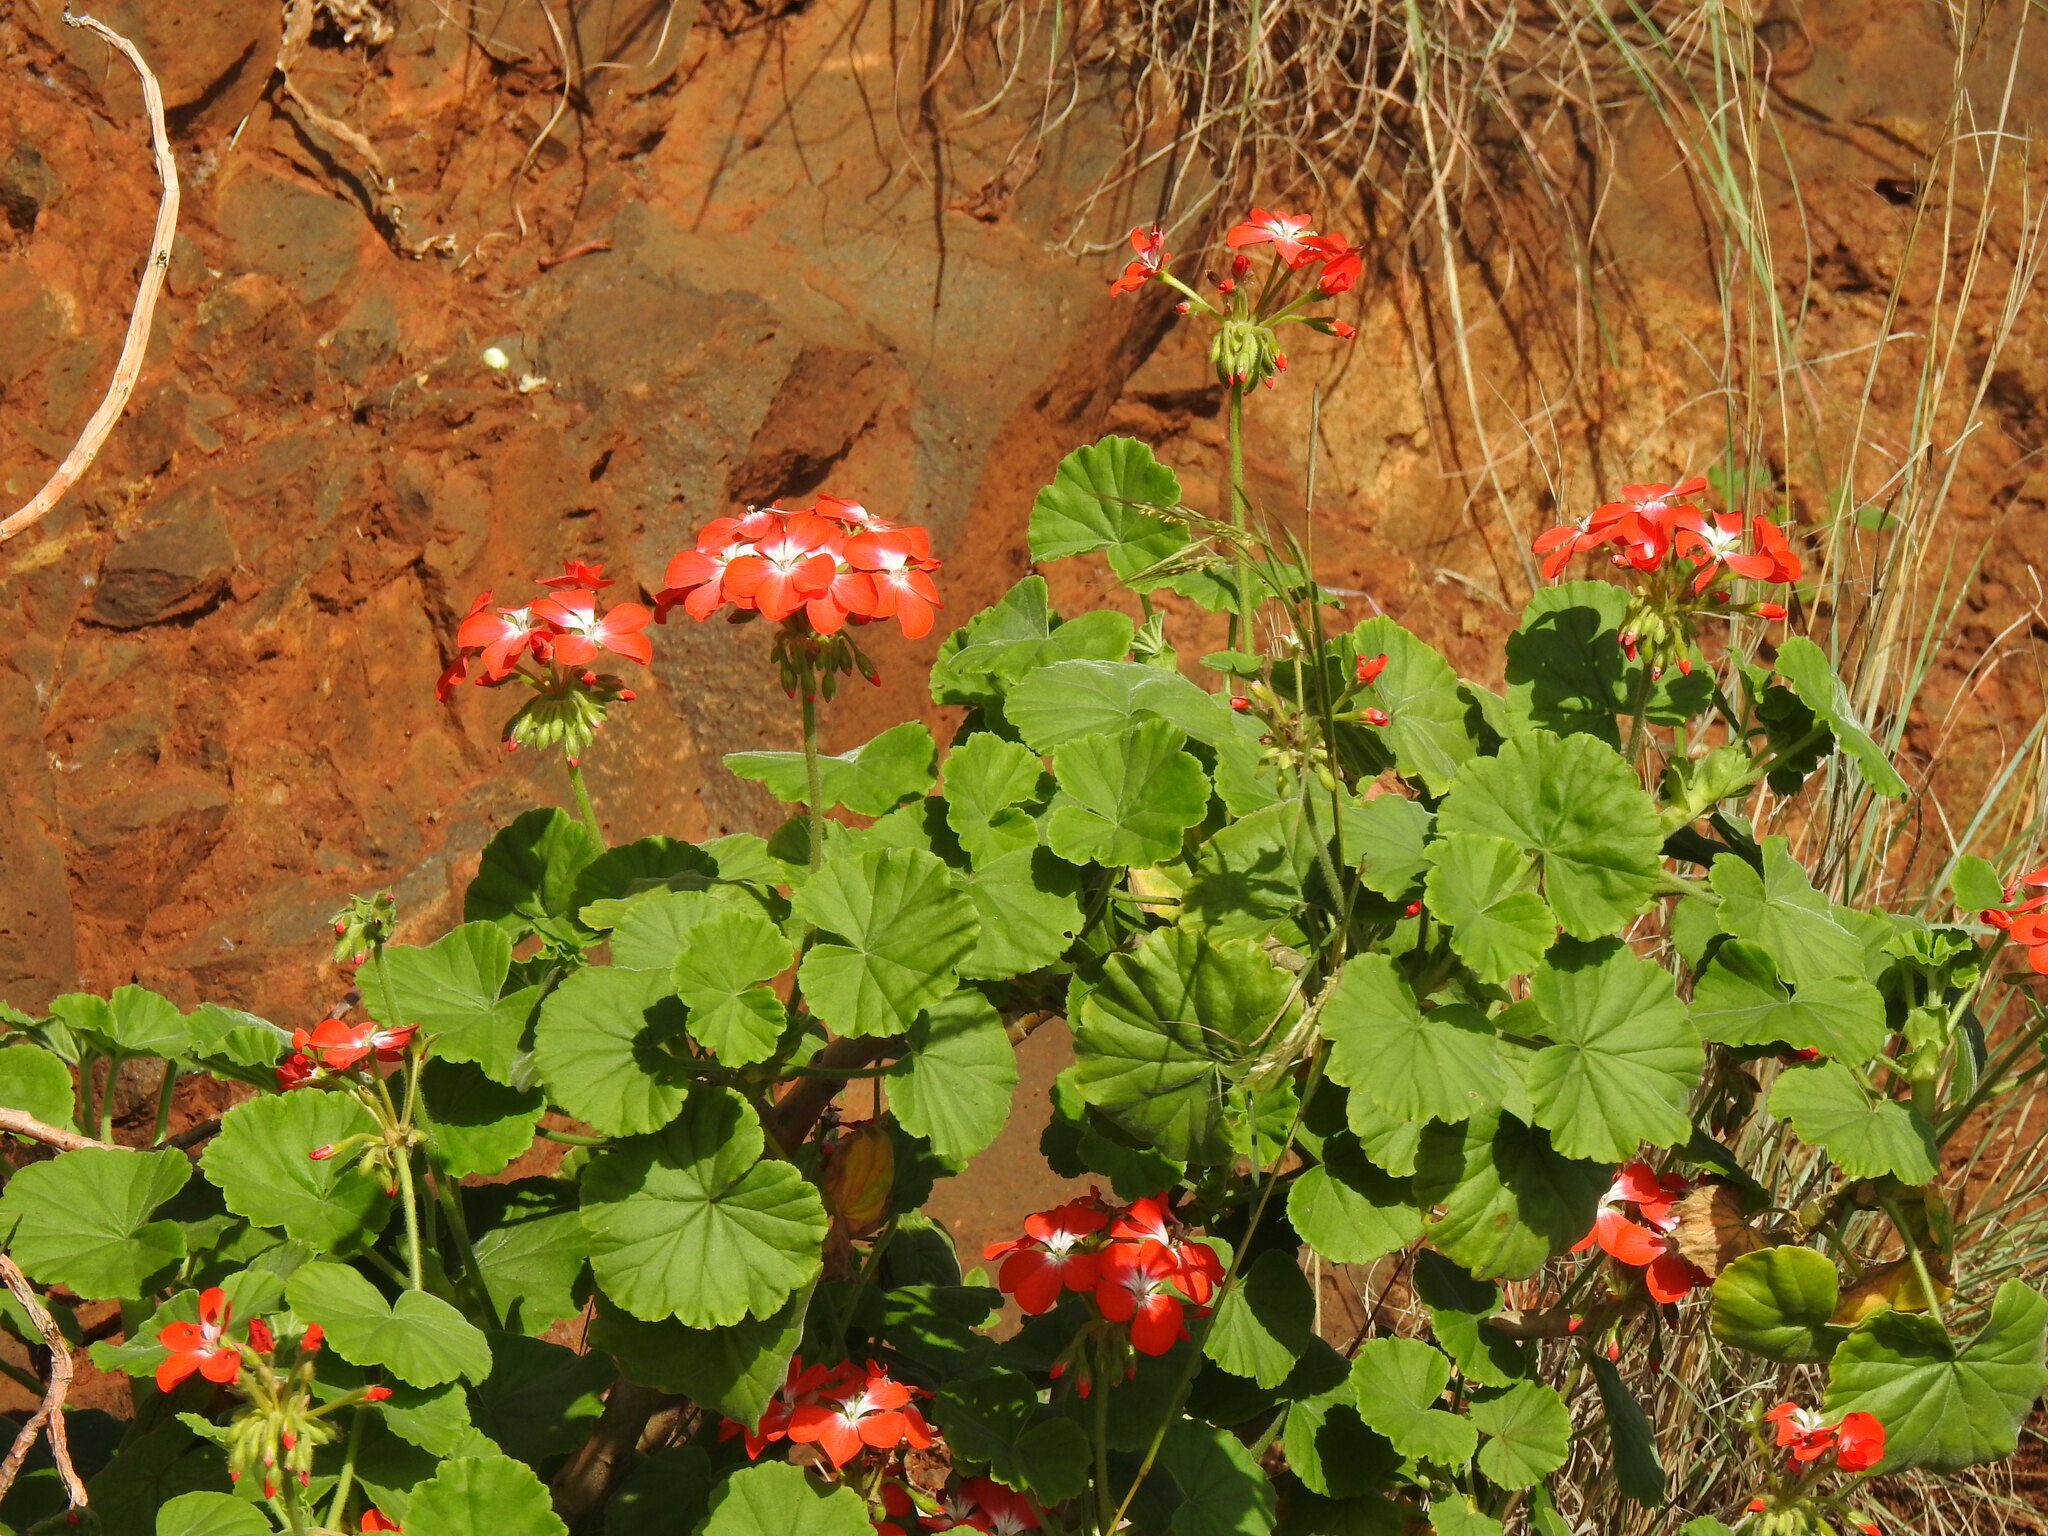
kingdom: Plantae
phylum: Tracheophyta
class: Magnoliopsida
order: Geraniales
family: Geraniaceae
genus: Pelargonium
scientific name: Pelargonium hybridum
